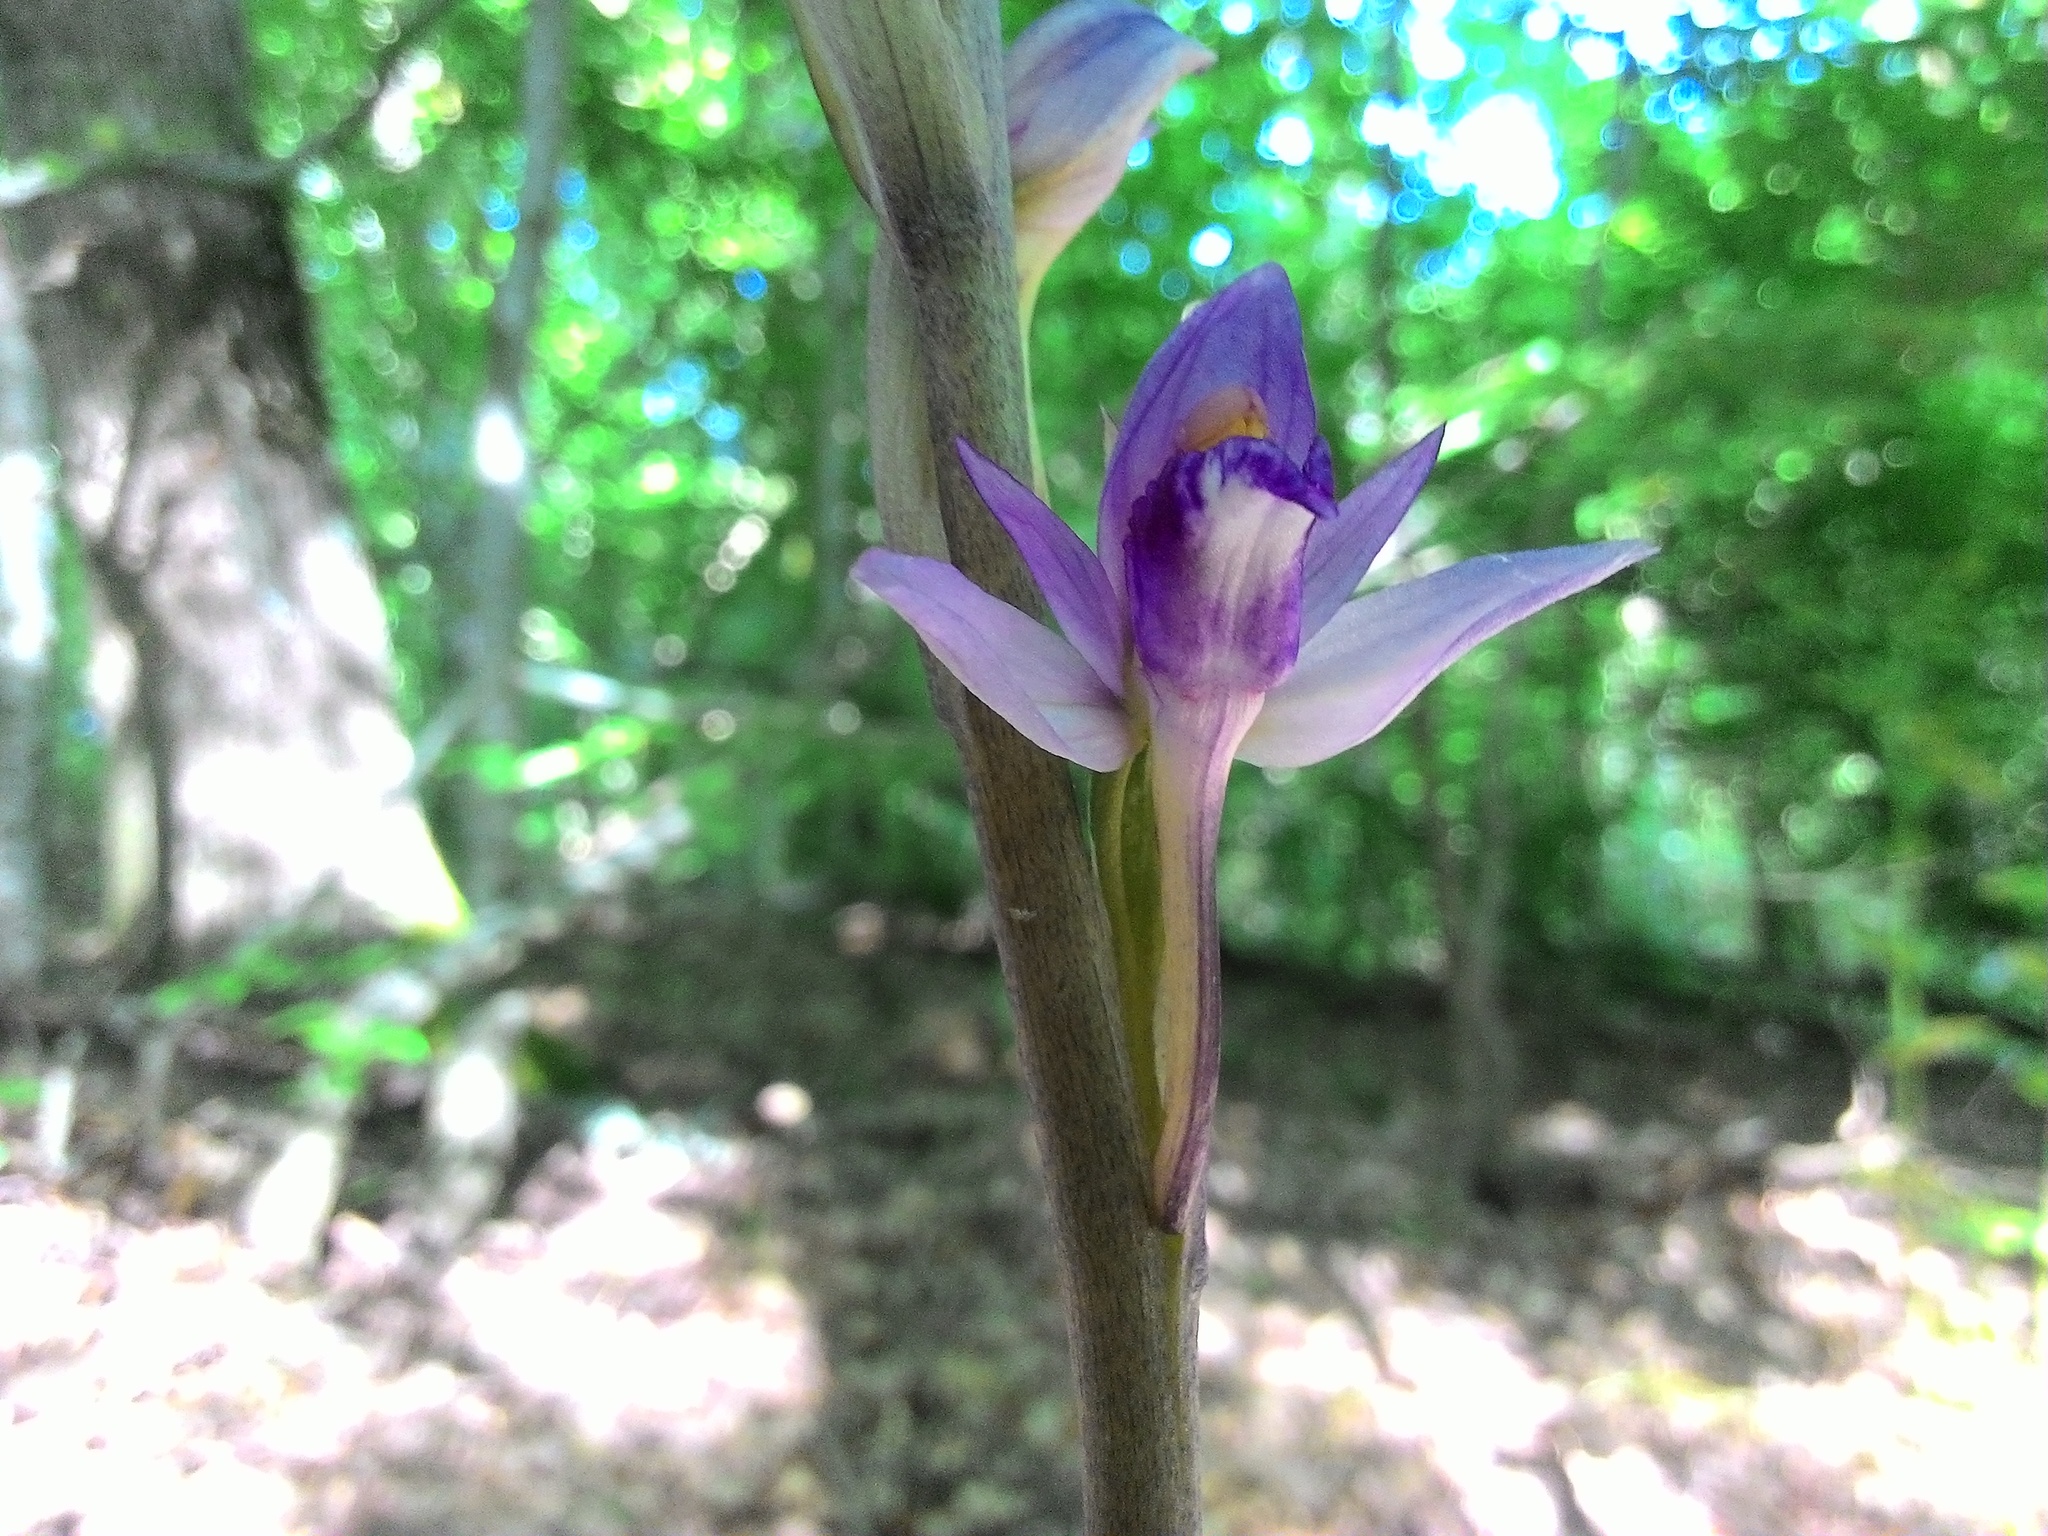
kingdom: Plantae
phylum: Tracheophyta
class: Liliopsida
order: Asparagales
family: Orchidaceae
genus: Limodorum
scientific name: Limodorum abortivum
